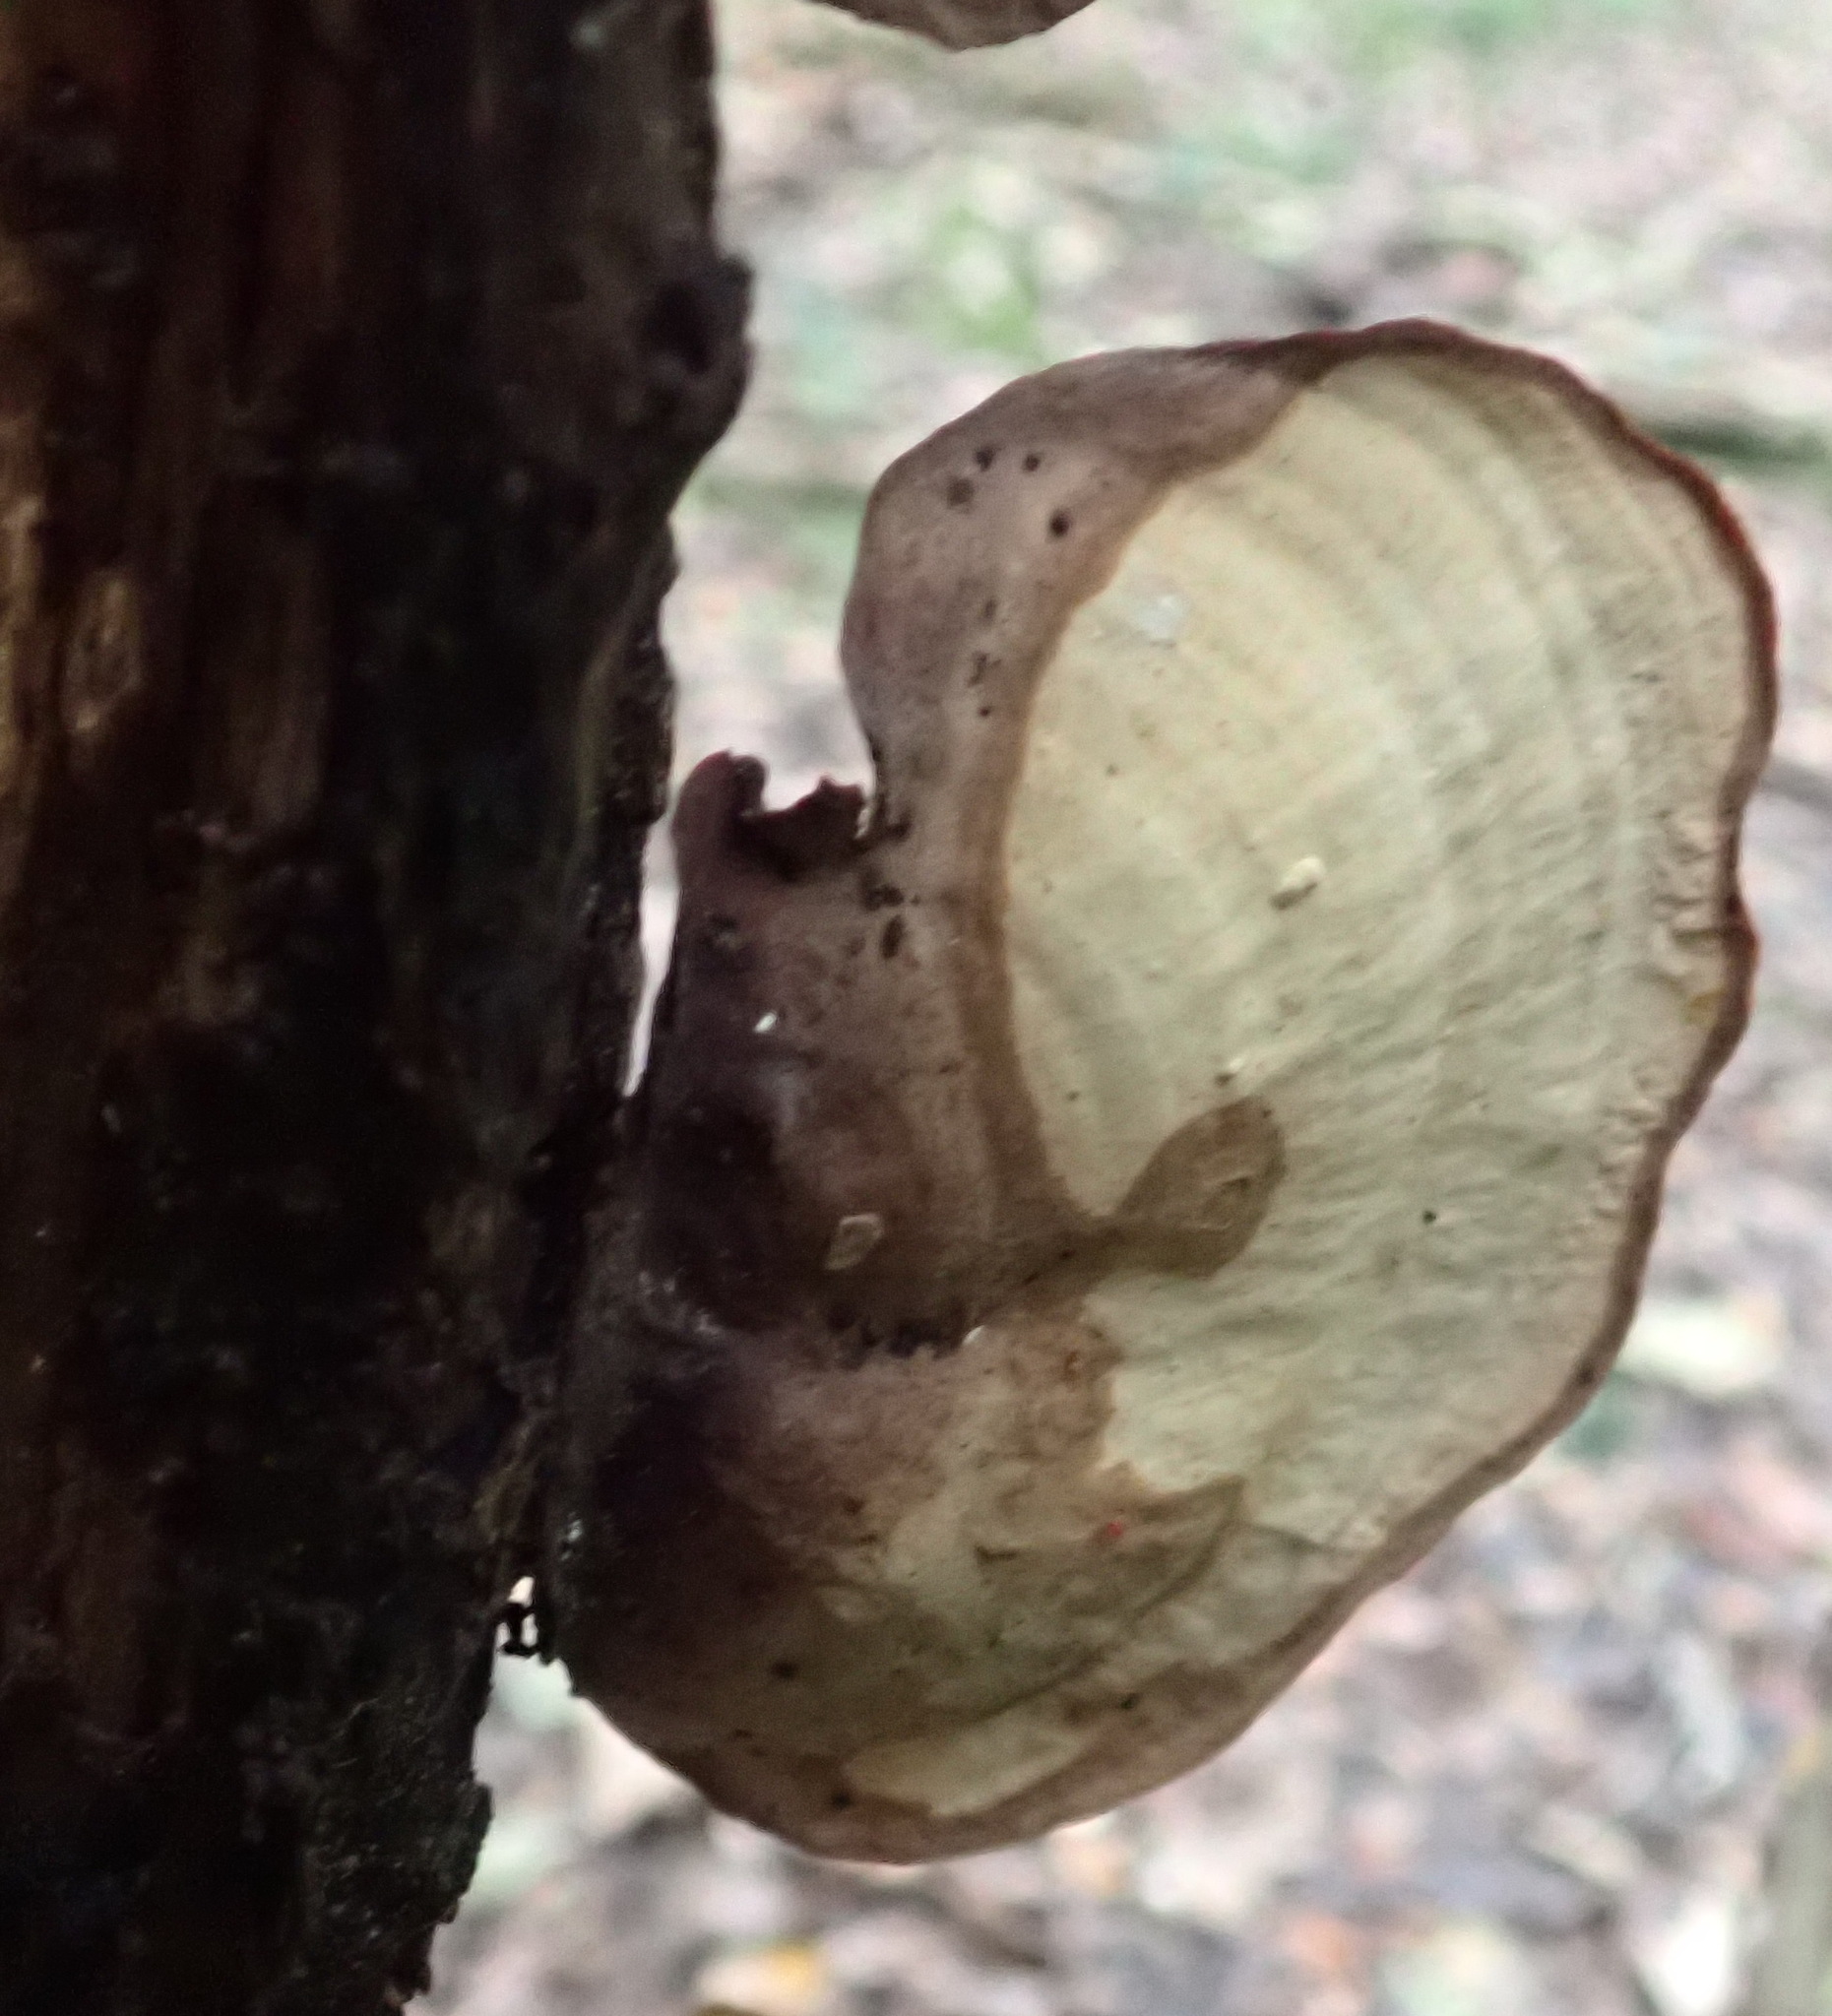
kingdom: Fungi
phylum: Basidiomycota
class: Agaricomycetes
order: Russulales
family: Stereaceae
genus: Stereum
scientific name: Stereum ostrea
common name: False turkeytail
